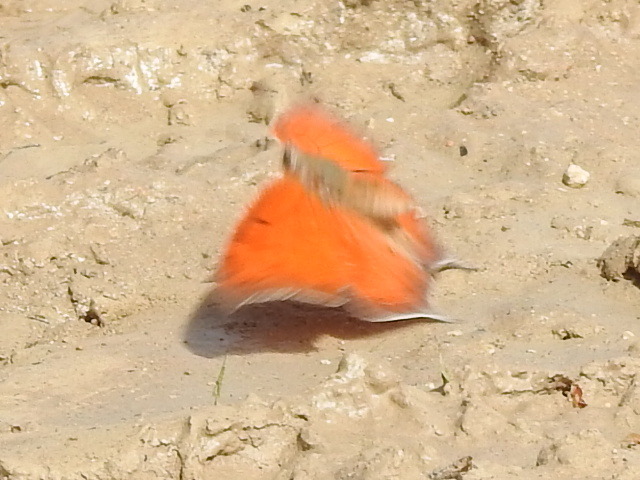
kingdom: Animalia
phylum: Arthropoda
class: Insecta
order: Lepidoptera
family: Nymphalidae
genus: Anaea
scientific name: Anaea andria
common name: Goatweed leafwing
